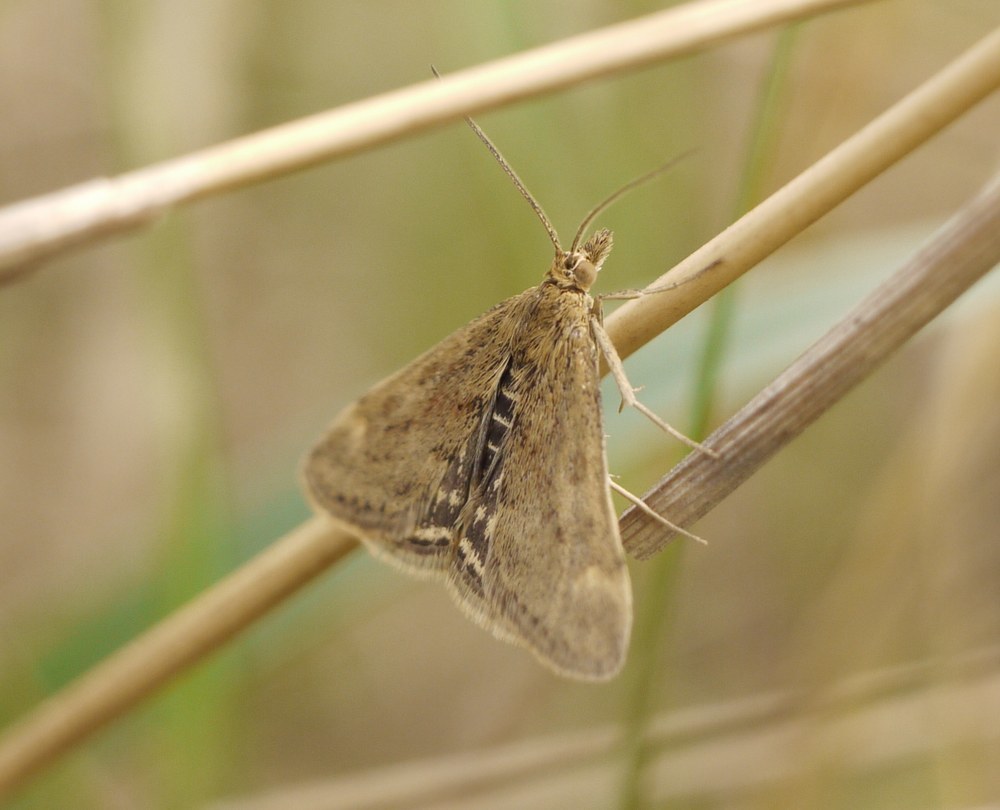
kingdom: Animalia
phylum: Arthropoda
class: Insecta
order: Lepidoptera
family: Crambidae
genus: Pyrausta
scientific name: Pyrausta despicata
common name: Straw-barred pearl
